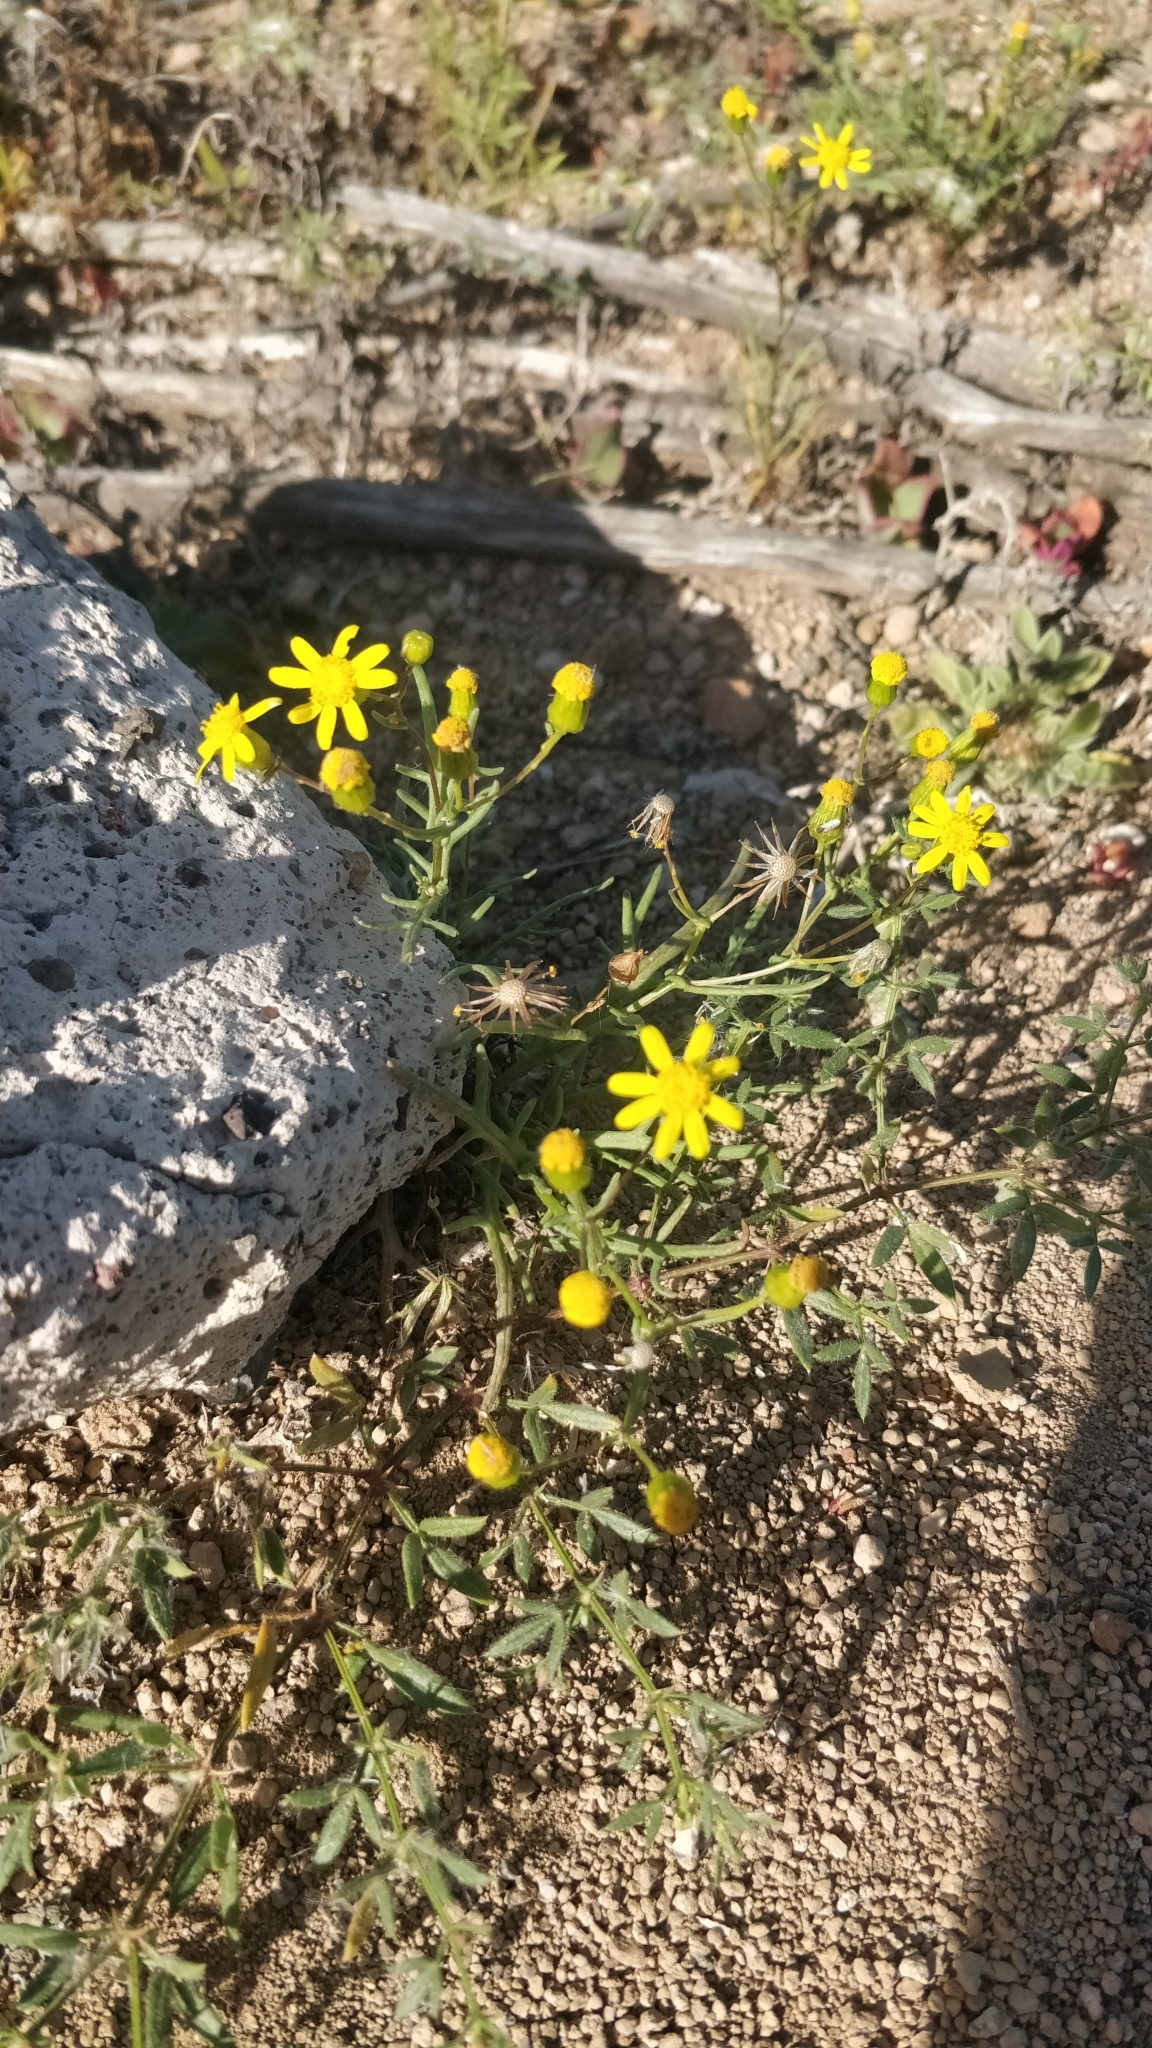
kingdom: Plantae
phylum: Tracheophyta
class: Magnoliopsida
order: Asterales
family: Asteraceae
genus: Senecio
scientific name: Senecio glaucus
